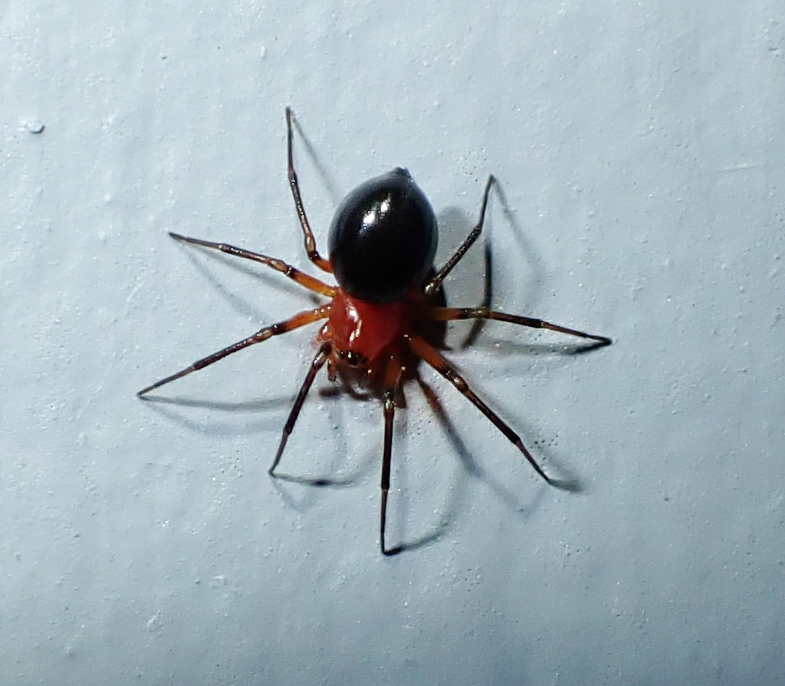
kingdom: Animalia
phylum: Arthropoda
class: Arachnida
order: Araneae
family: Linyphiidae
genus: Hypselistes
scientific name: Hypselistes florens
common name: Peatland sheetweb weaver
